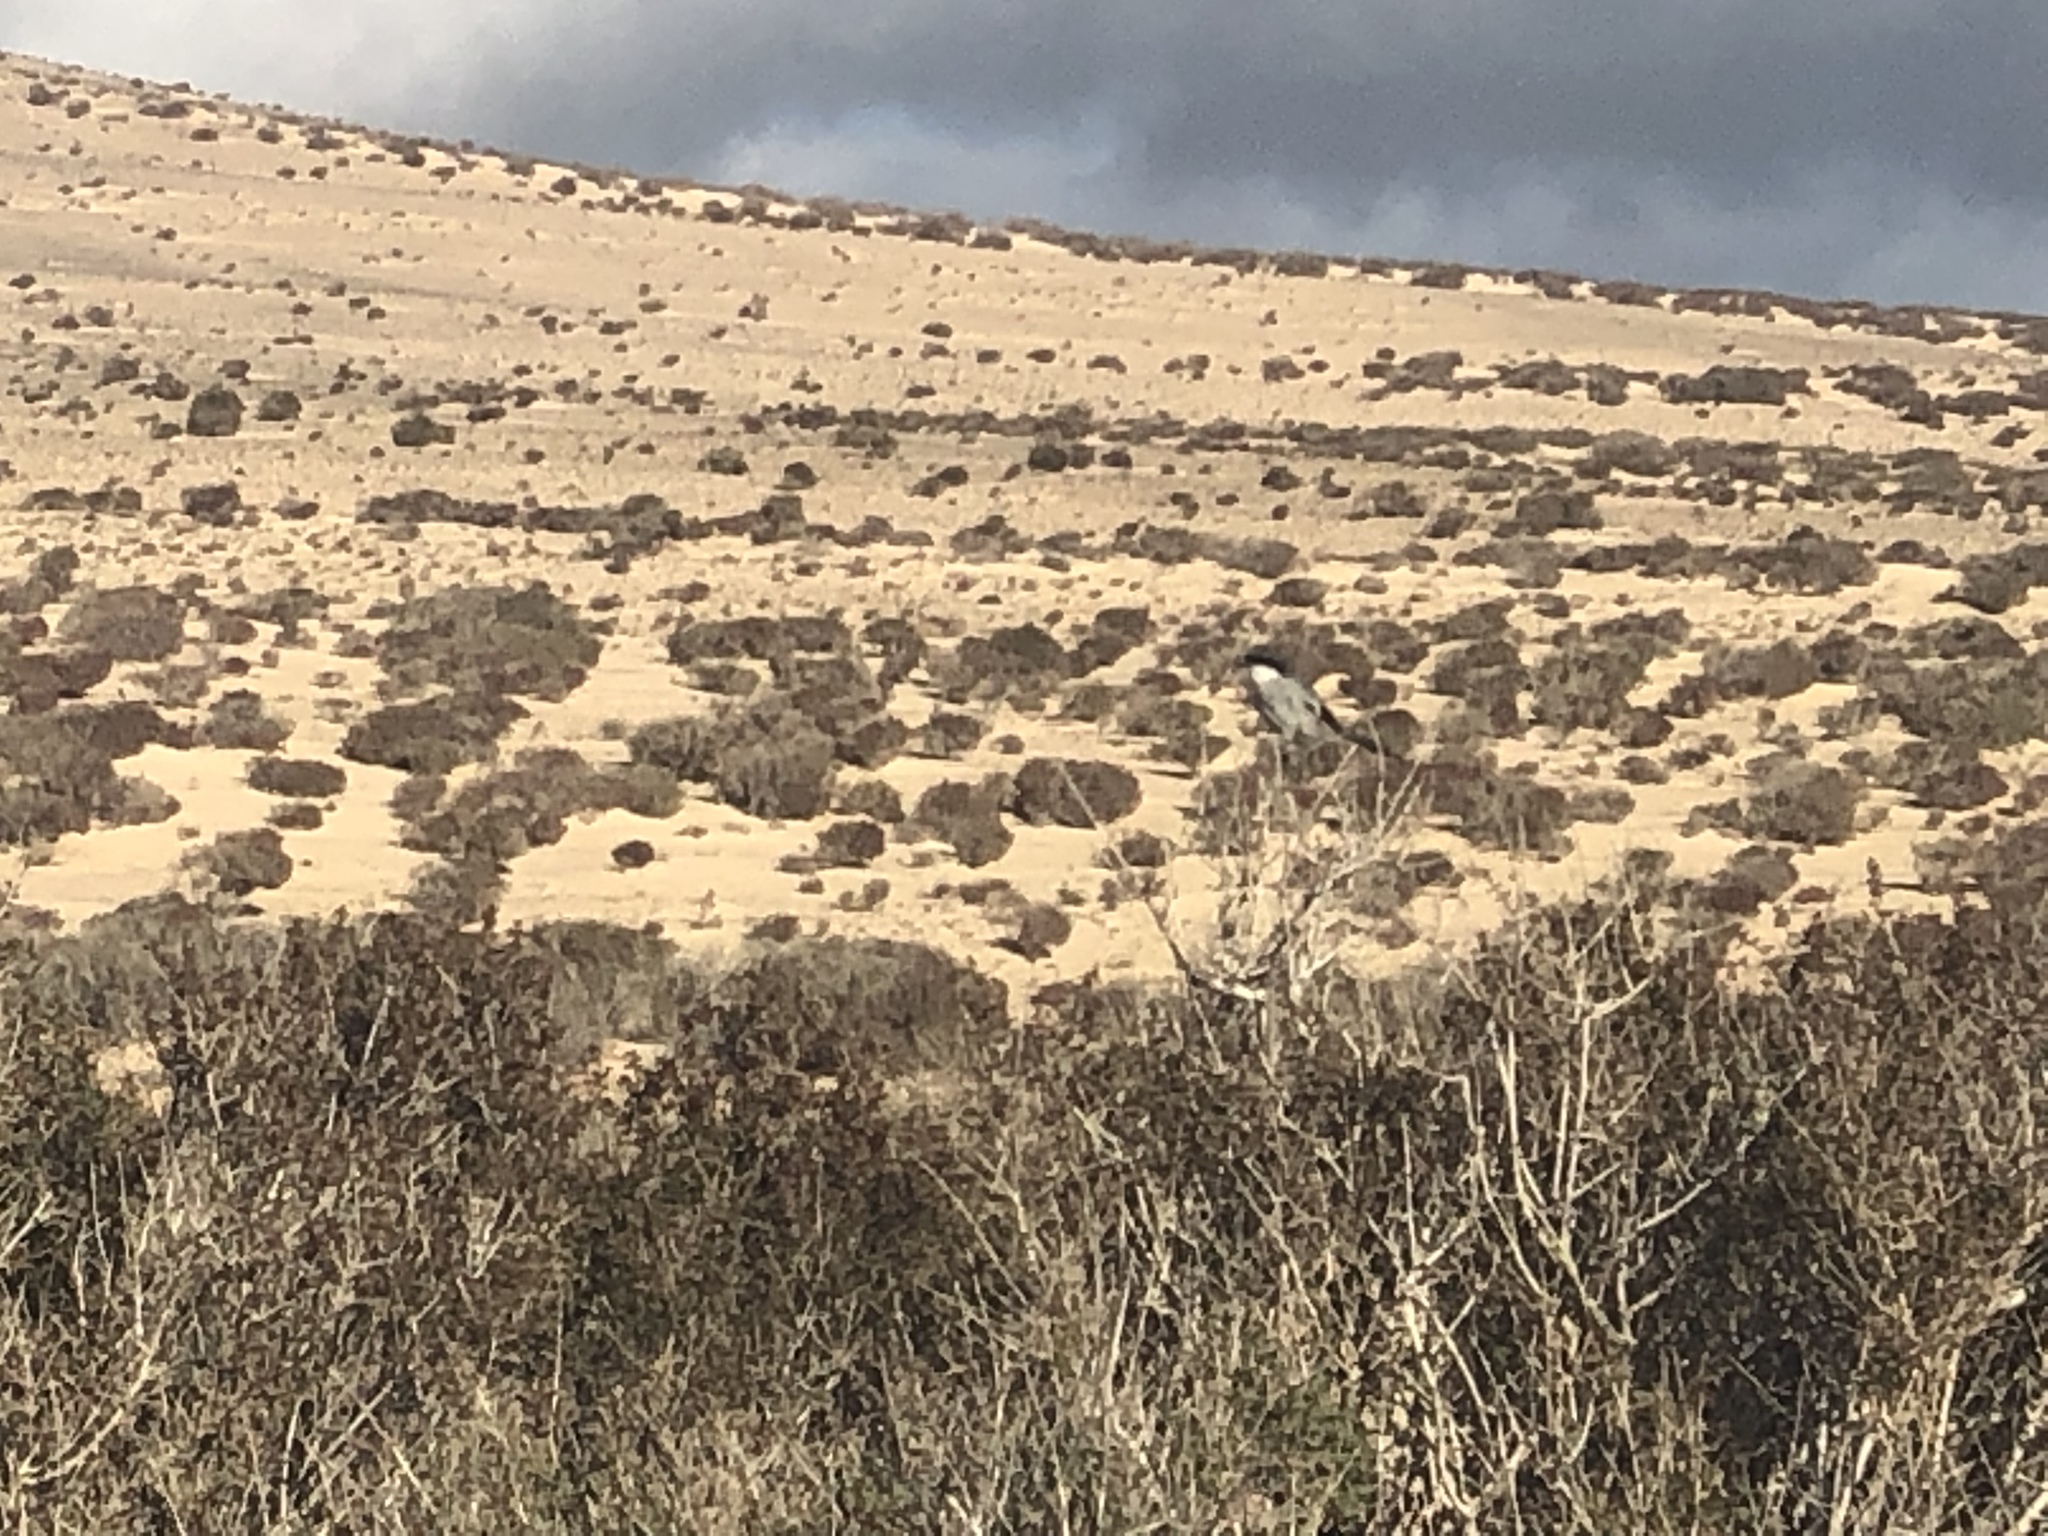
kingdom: Animalia
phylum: Chordata
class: Aves
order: Passeriformes
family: Laniidae
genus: Lanius
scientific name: Lanius excubitor
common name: Great grey shrike
